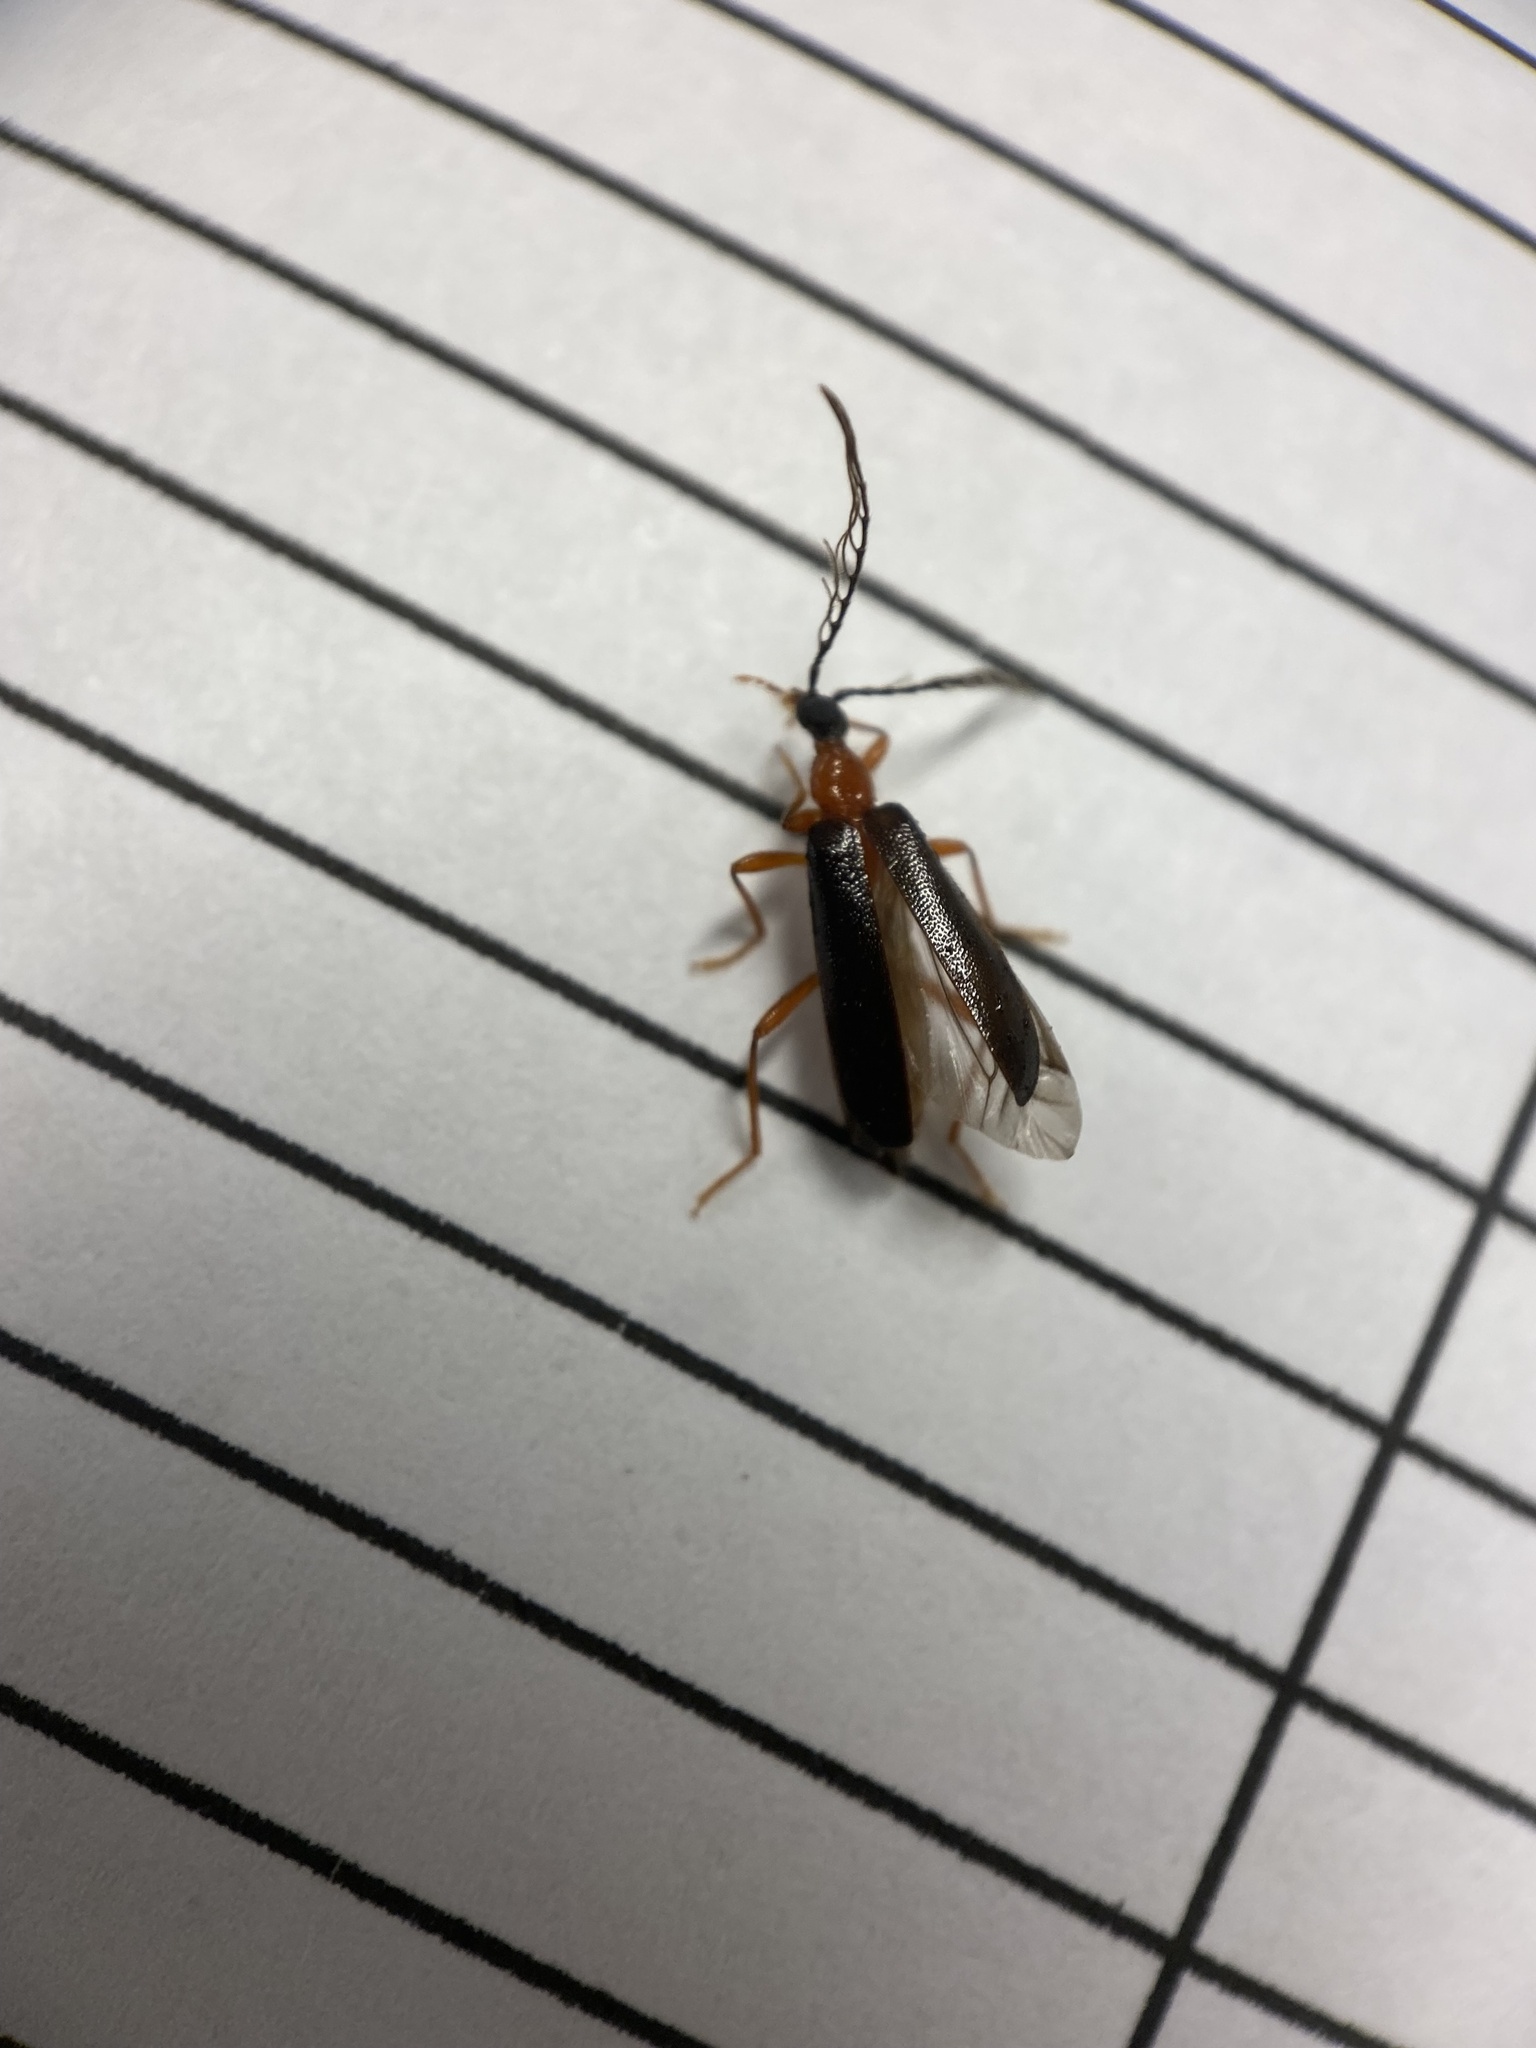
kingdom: Animalia
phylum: Arthropoda
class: Insecta
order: Coleoptera
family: Pyrochroidae
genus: Dendroides
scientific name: Dendroides canadensis
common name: Canada fire-colored beetle
